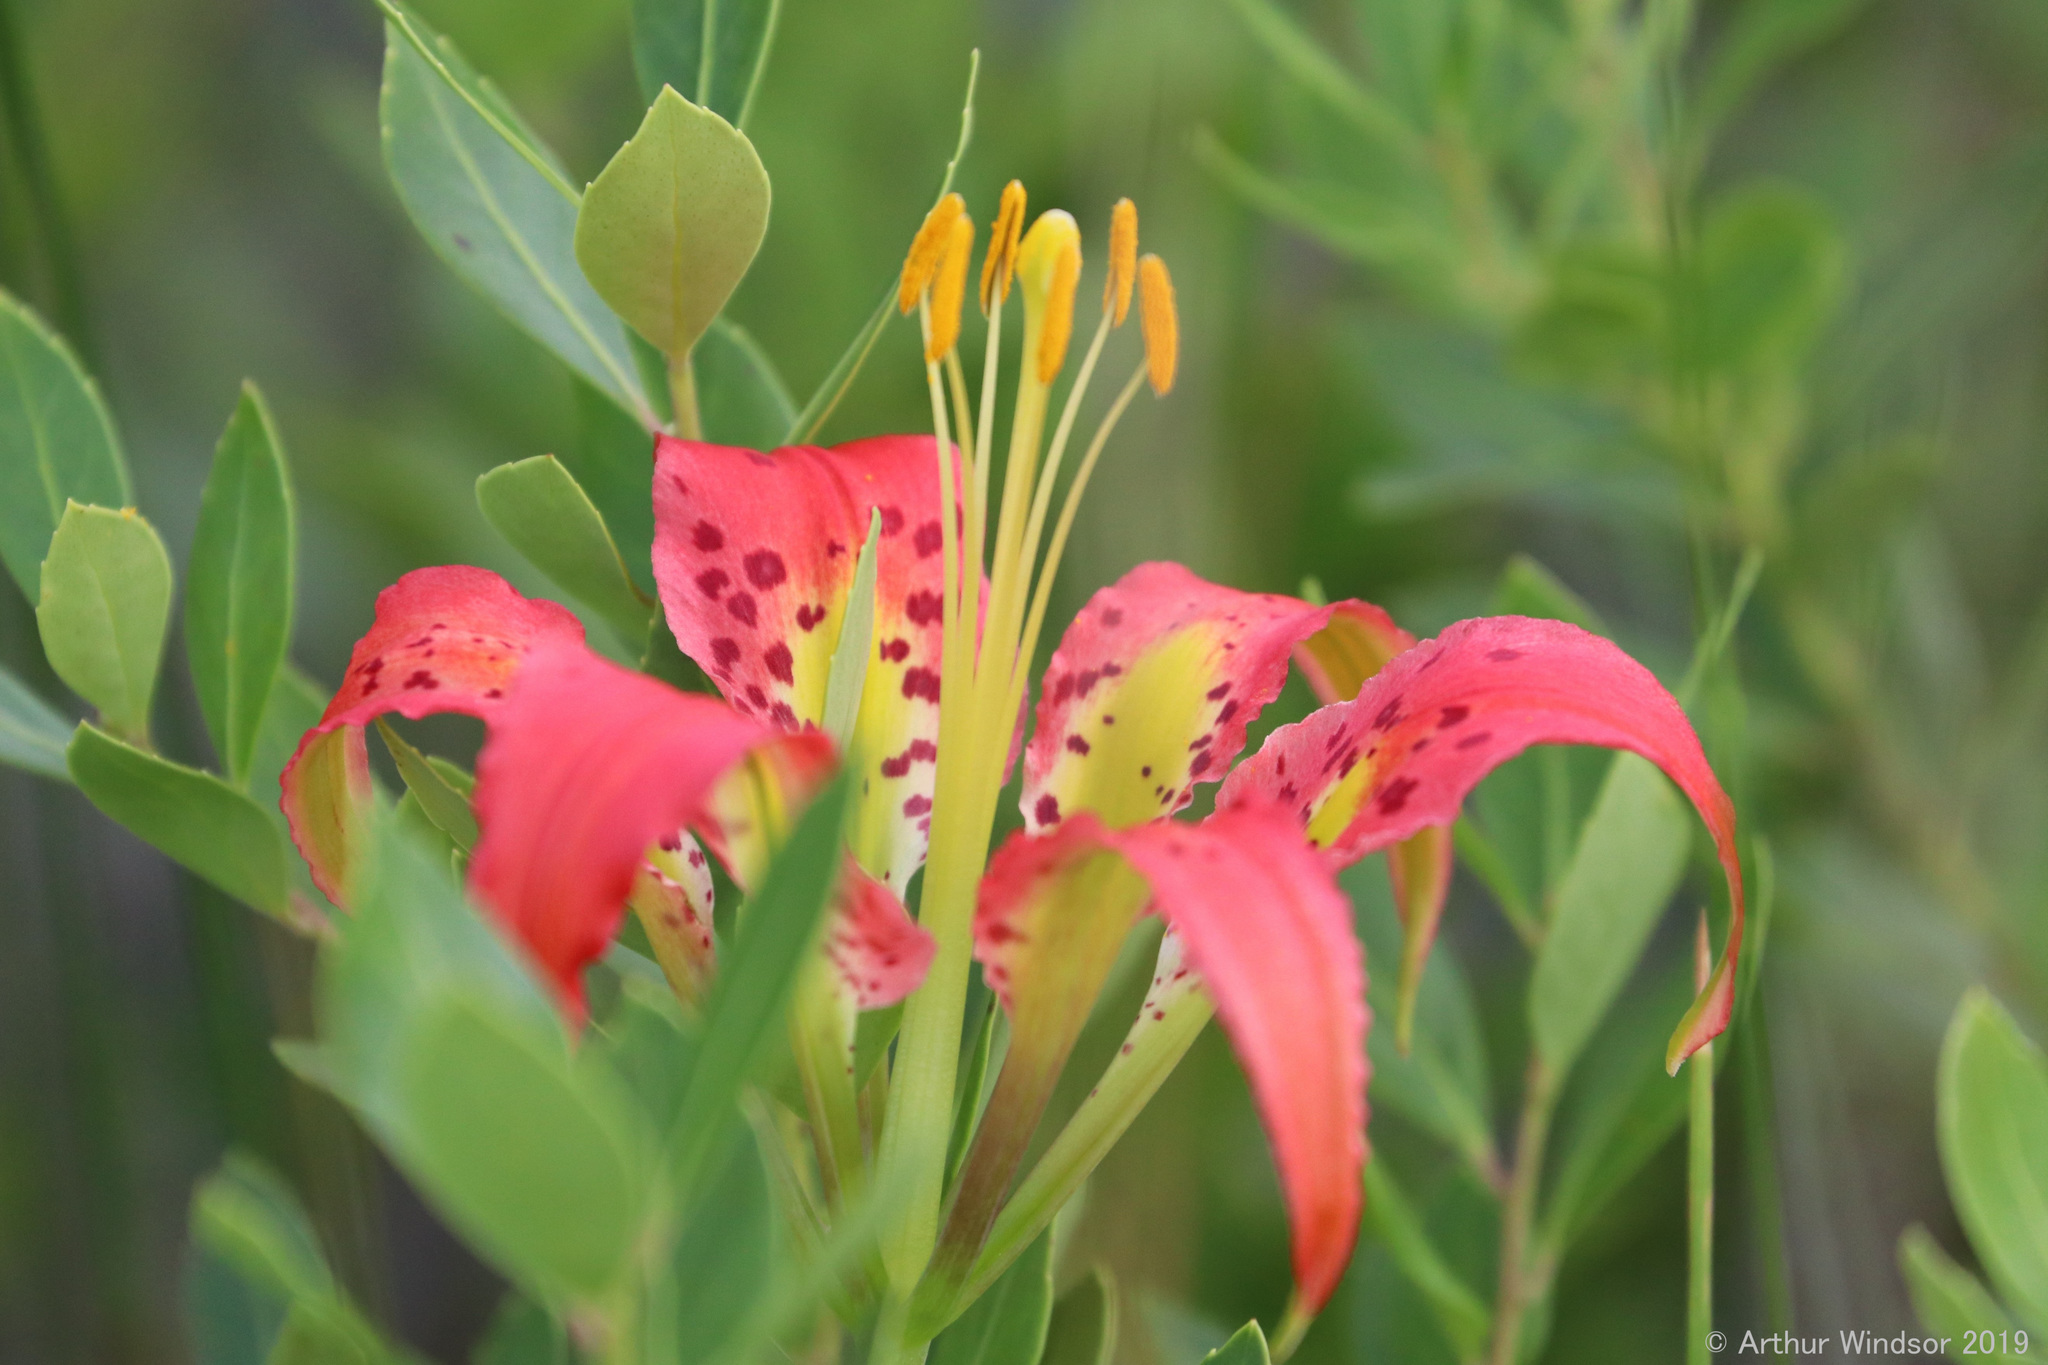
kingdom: Plantae
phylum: Tracheophyta
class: Liliopsida
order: Liliales
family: Liliaceae
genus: Lilium
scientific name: Lilium catesbaei
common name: Catesby's lily
